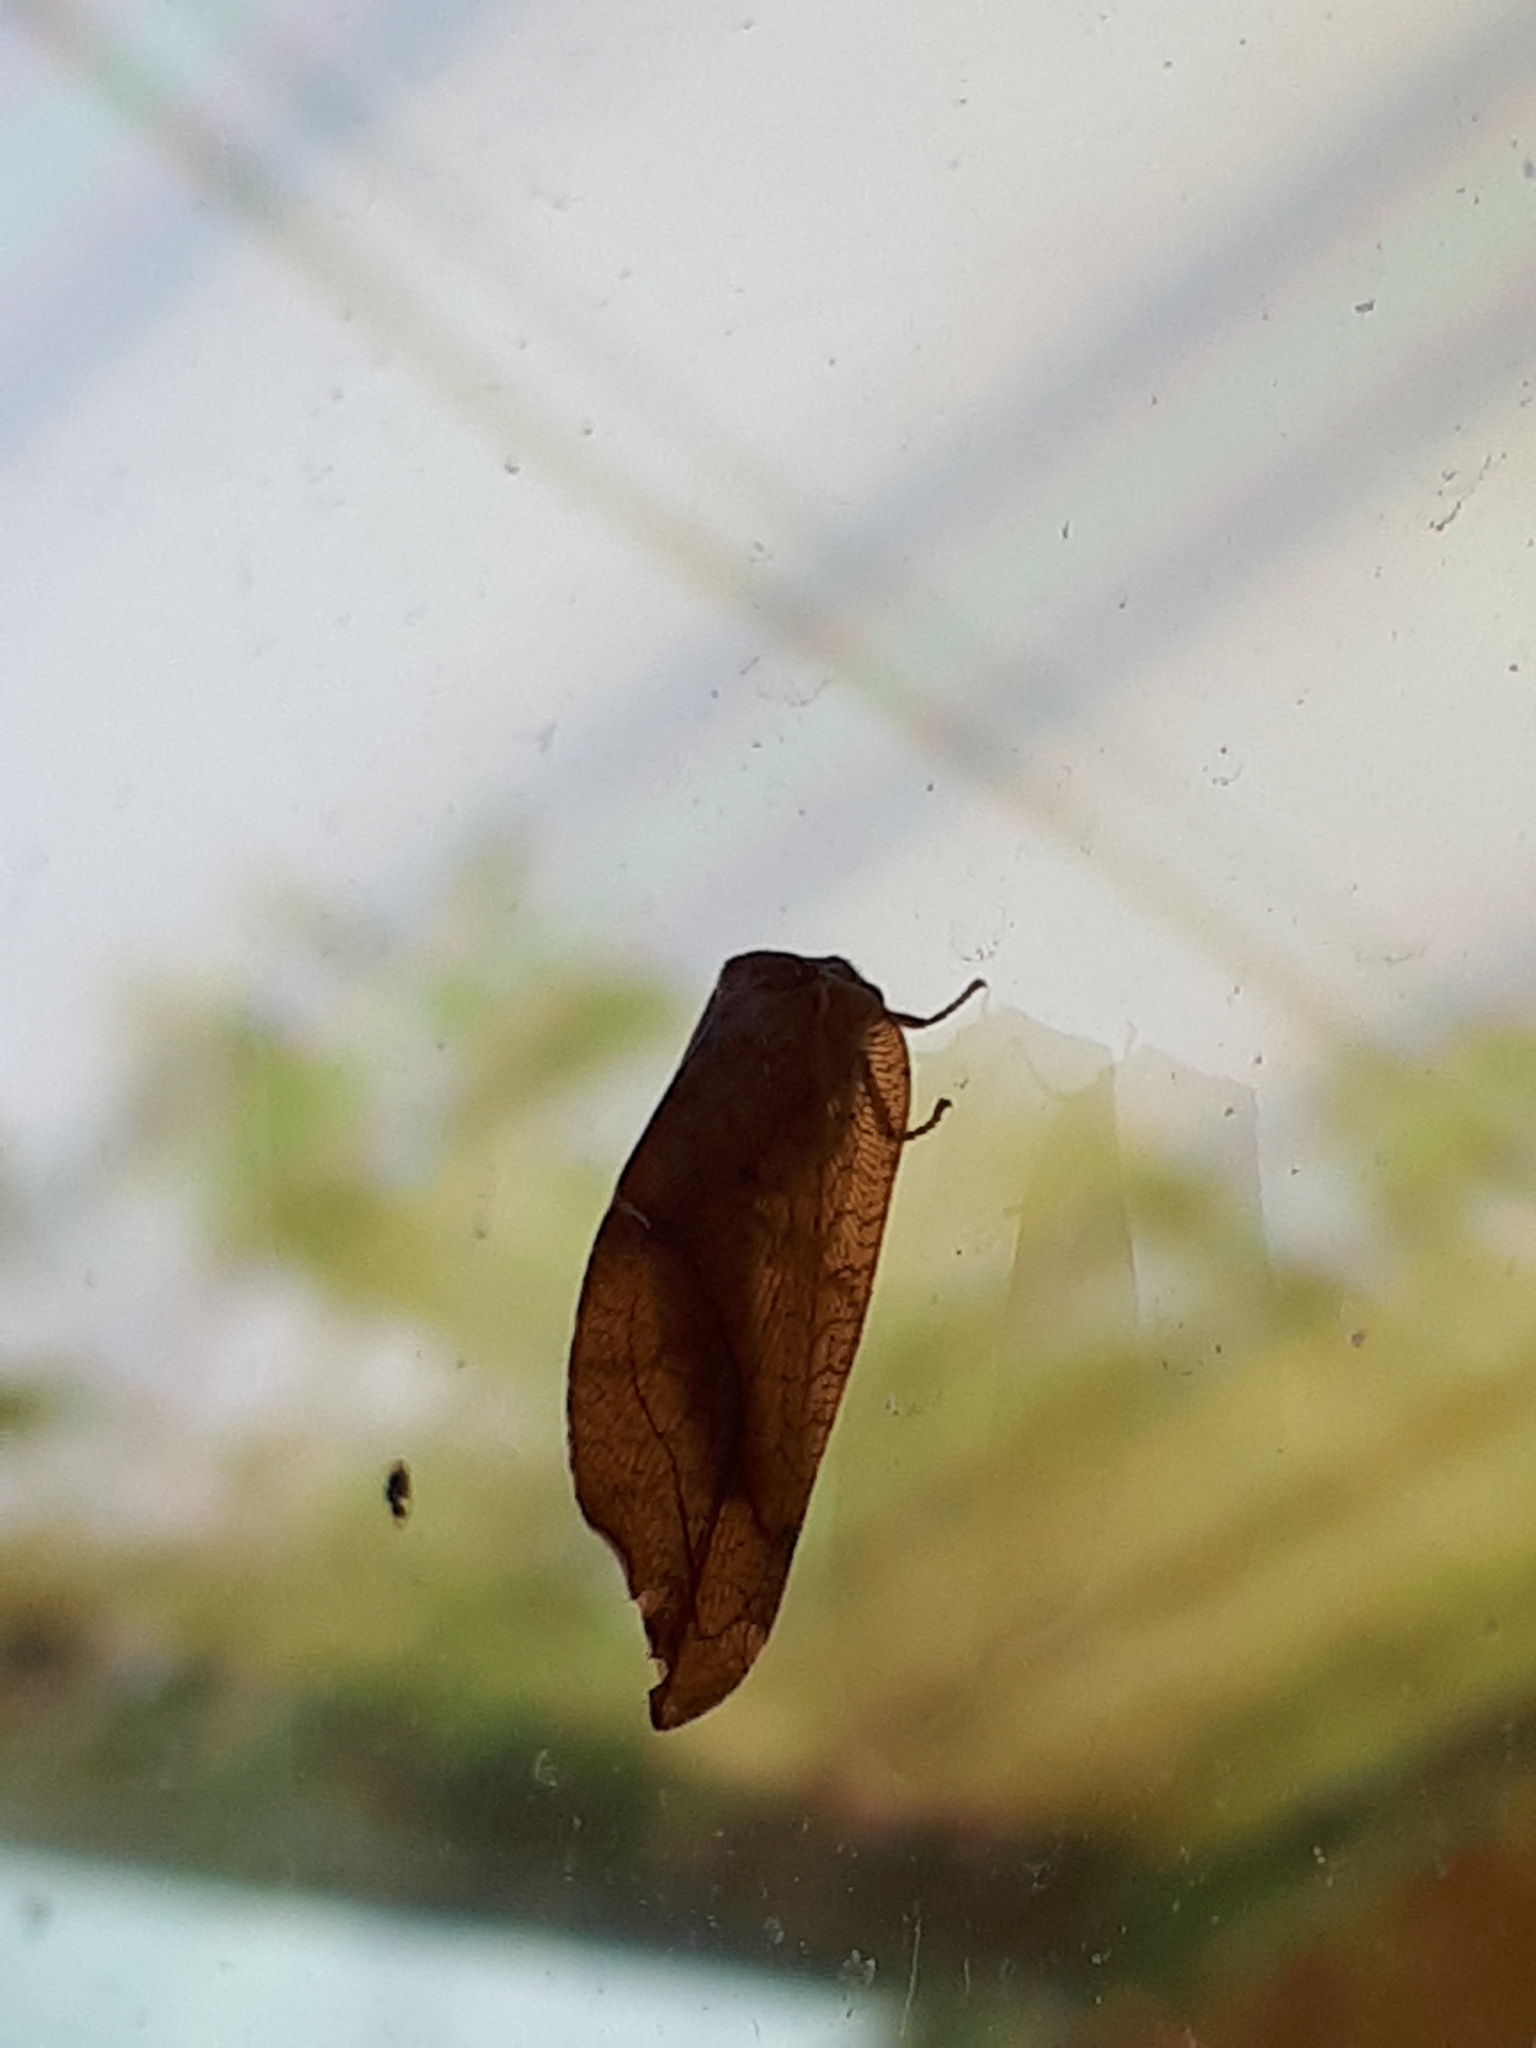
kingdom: Animalia
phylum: Arthropoda
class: Insecta
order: Neuroptera
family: Hemerobiidae
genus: Drepanepteryx
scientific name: Drepanepteryx phalaenoides
